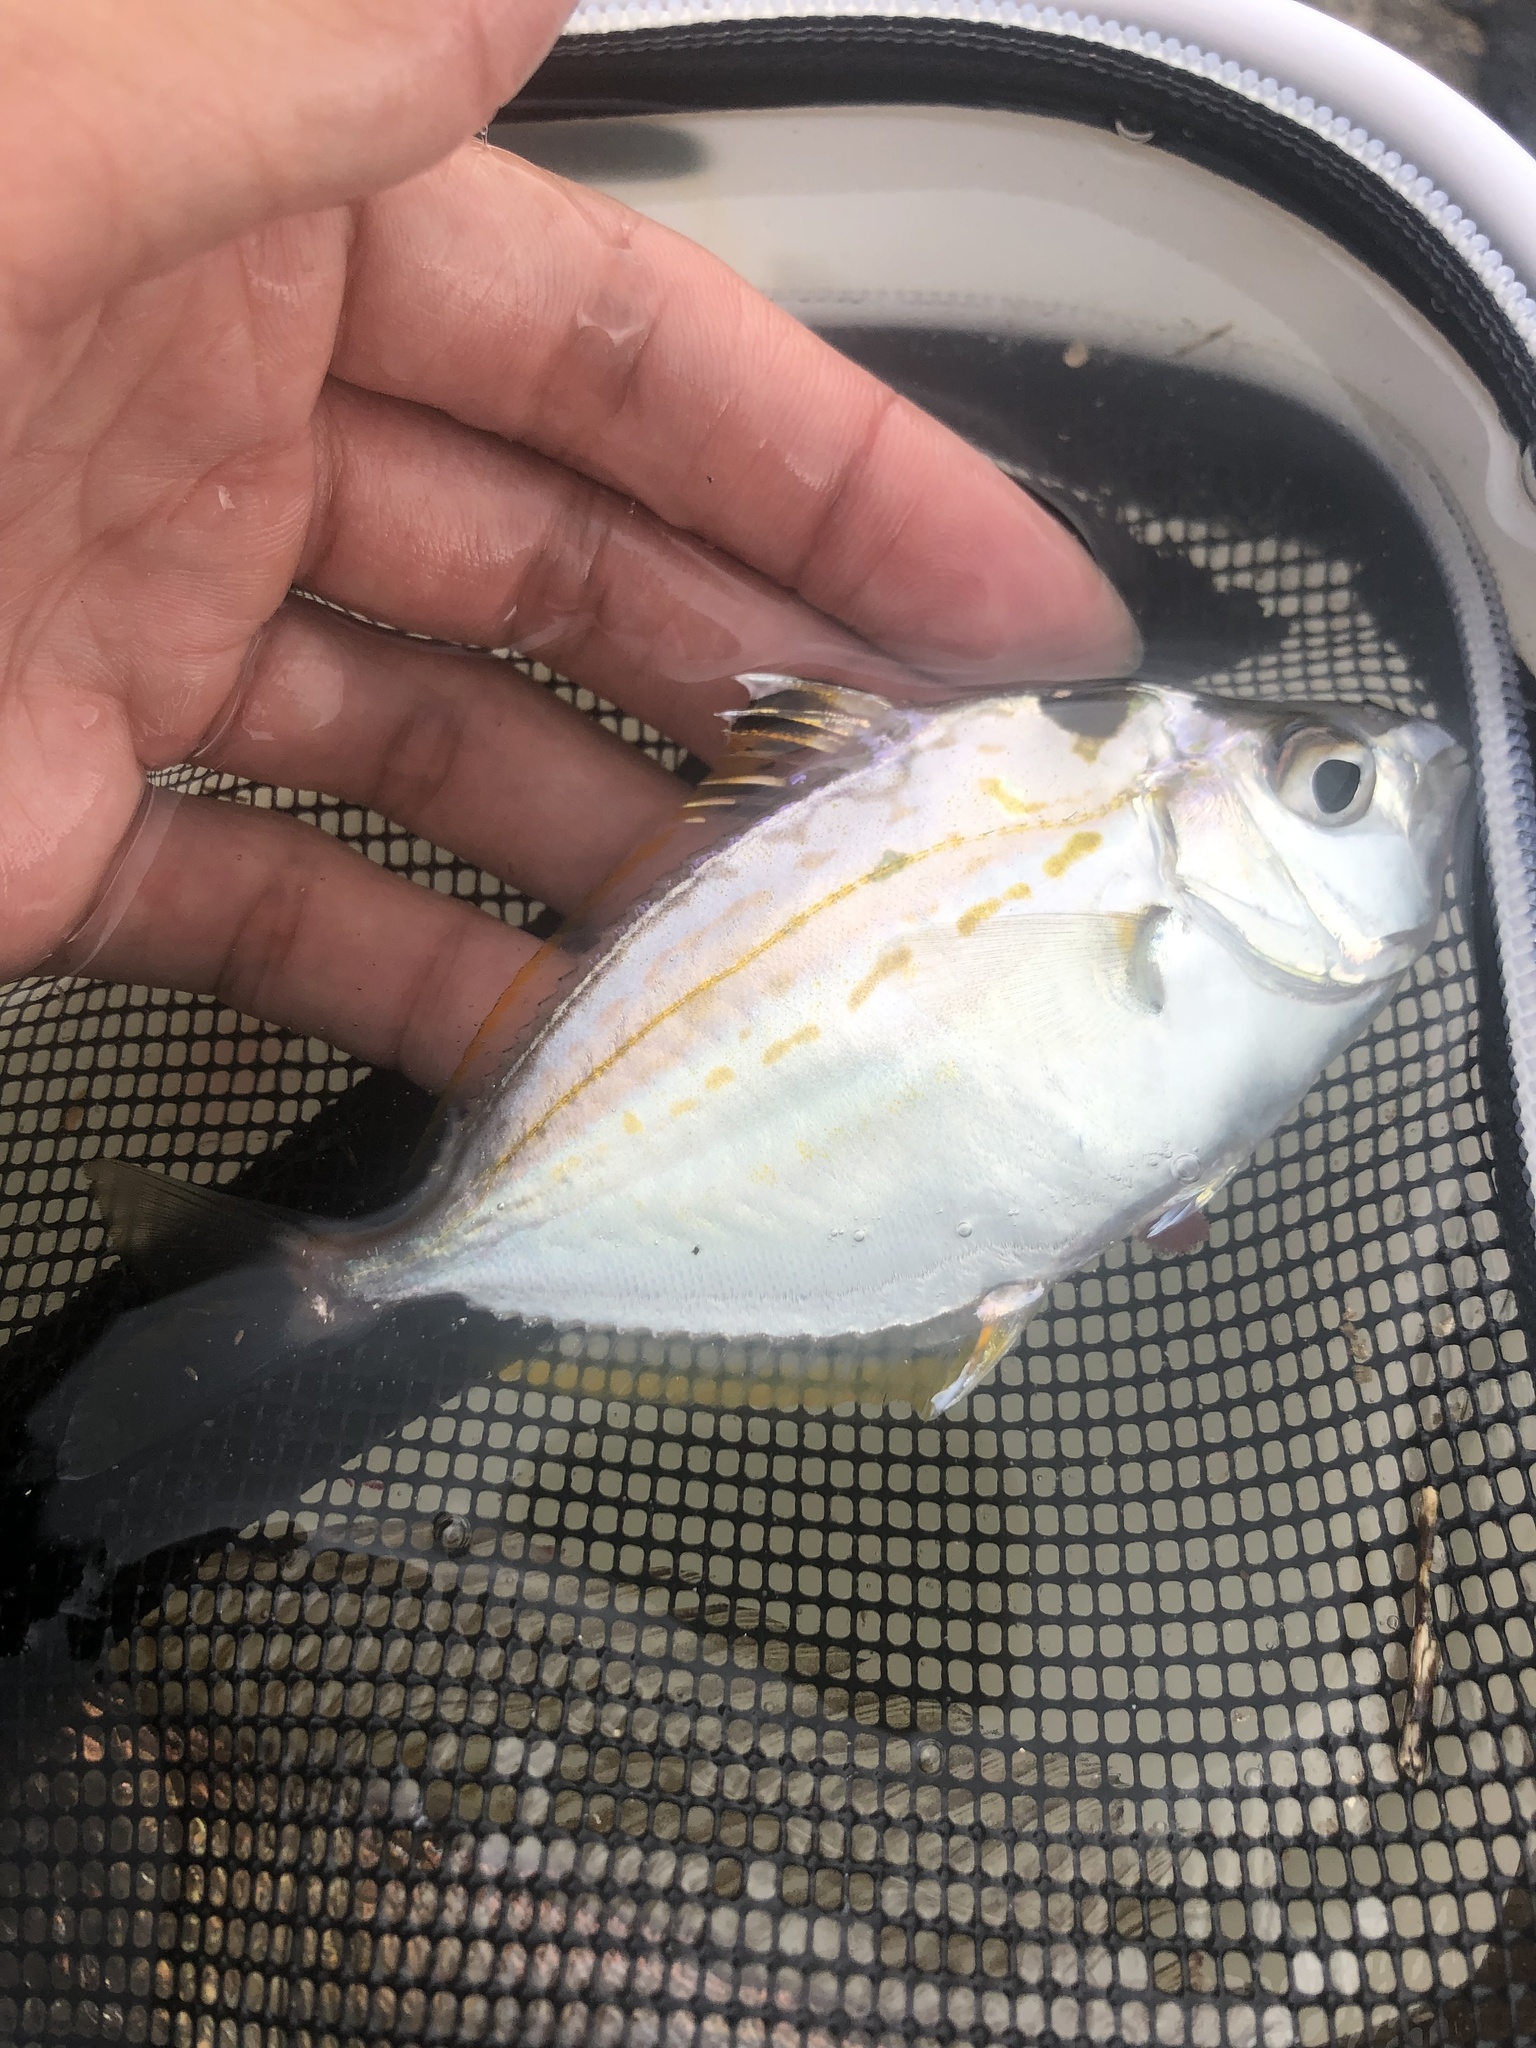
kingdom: Animalia
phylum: Chordata
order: Perciformes
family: Leiognathidae
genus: Nuchequula
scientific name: Nuchequula nuchalis
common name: Spotnape ponyfish
